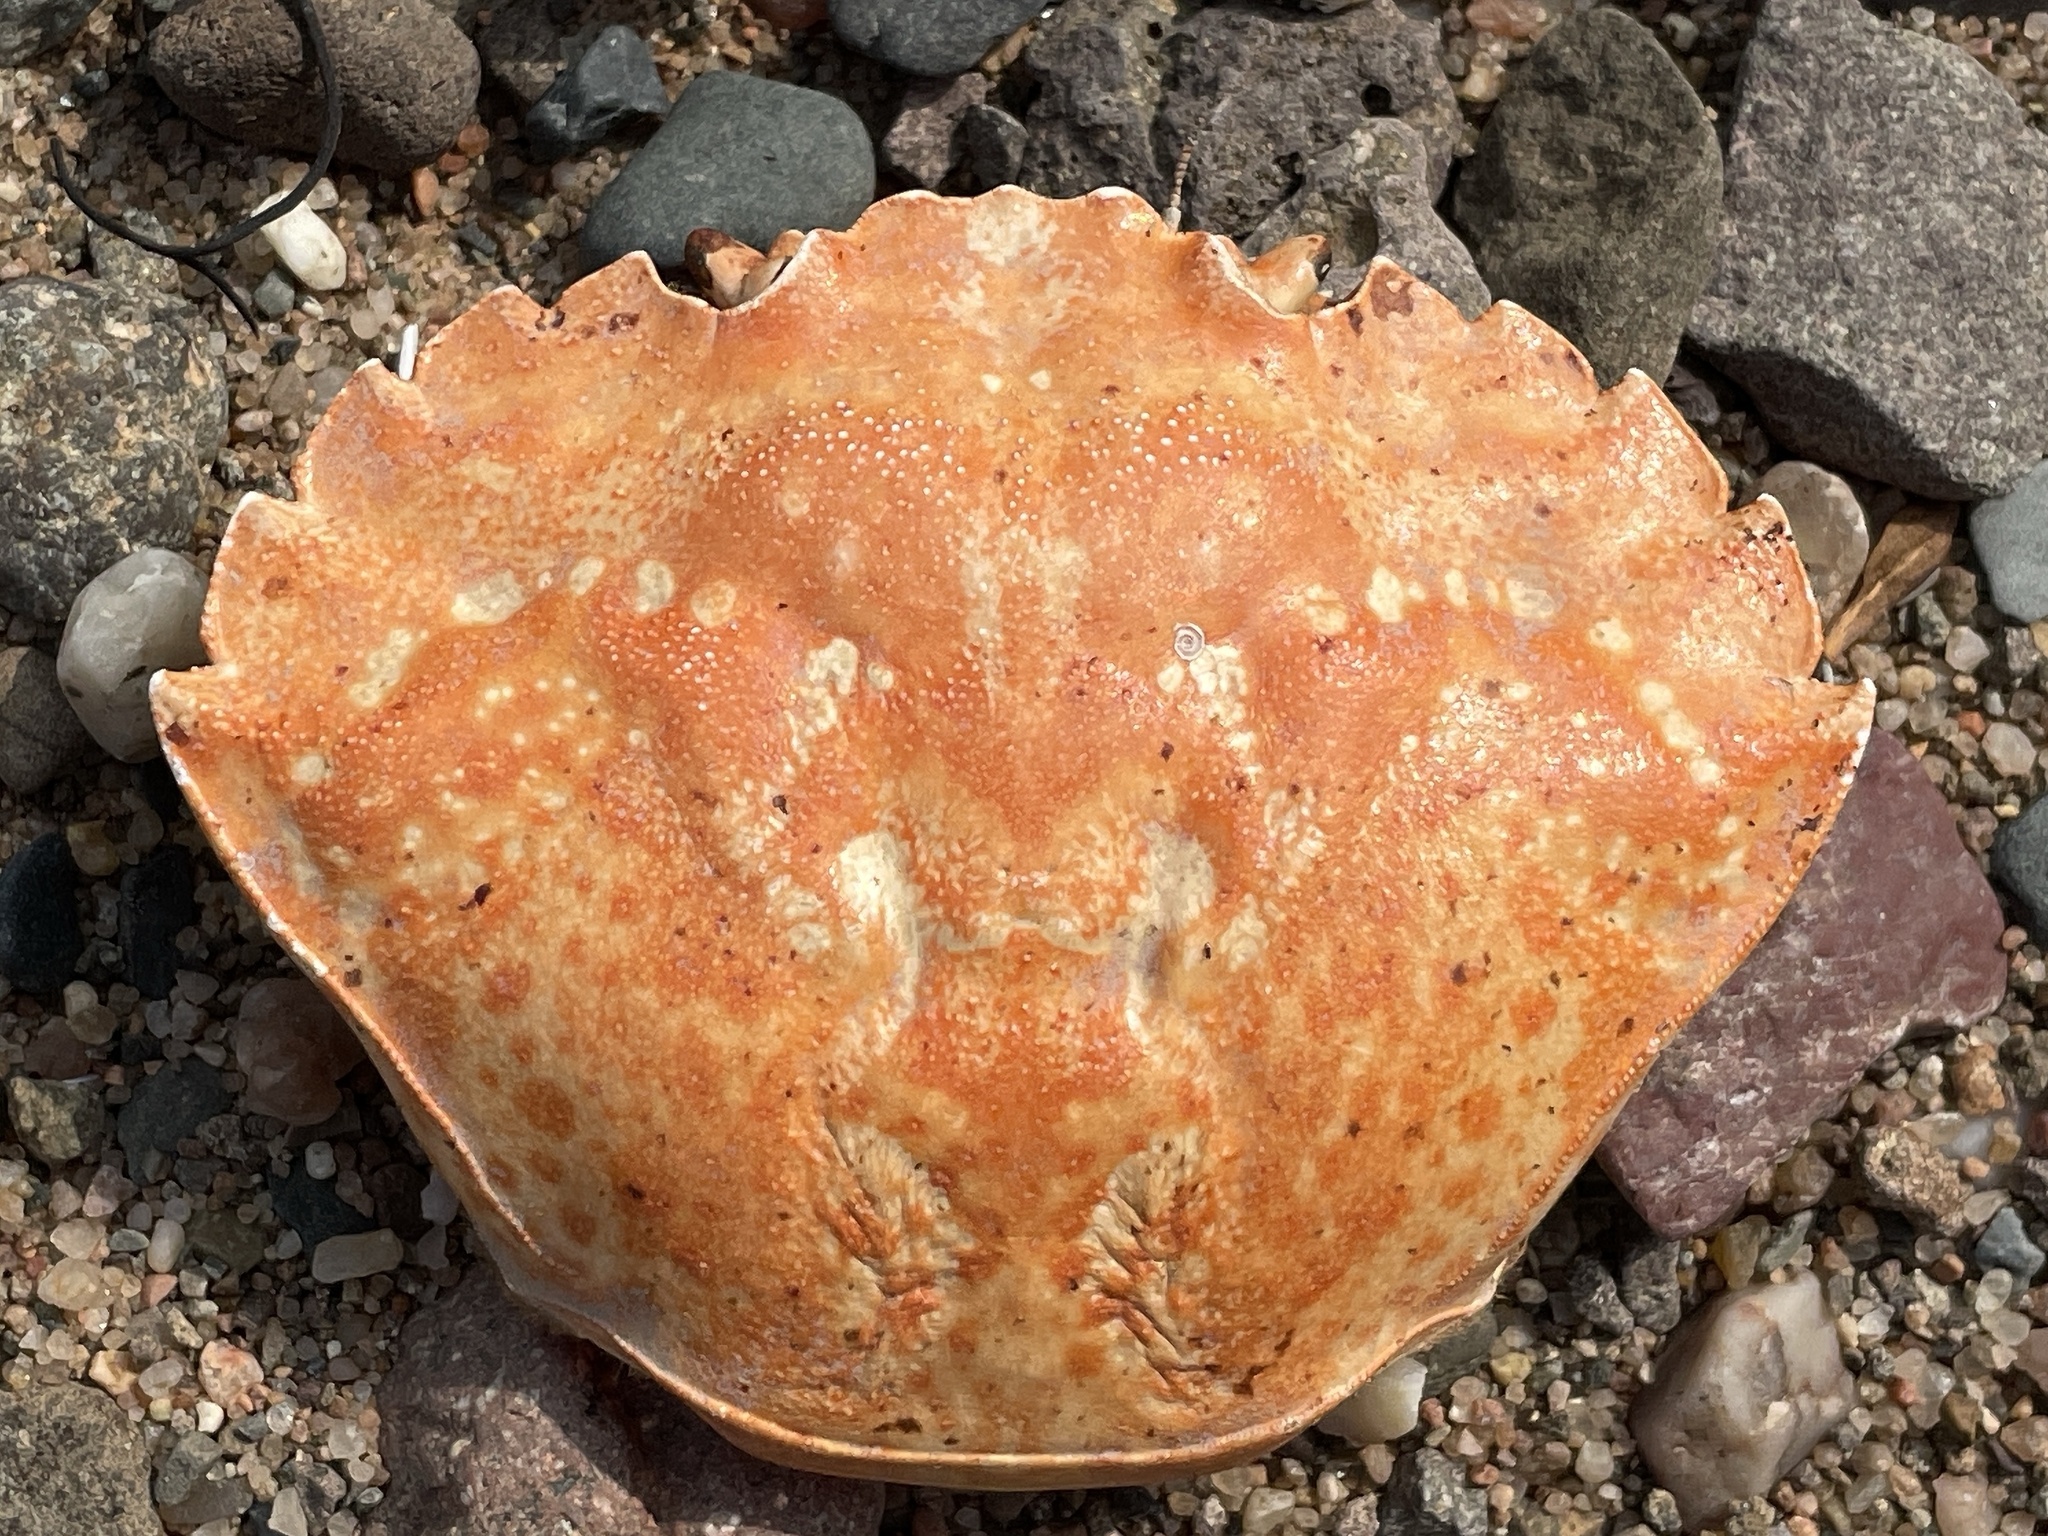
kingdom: Animalia
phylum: Arthropoda
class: Malacostraca
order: Decapoda
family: Carcinidae
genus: Carcinus
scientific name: Carcinus maenas
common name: European green crab
